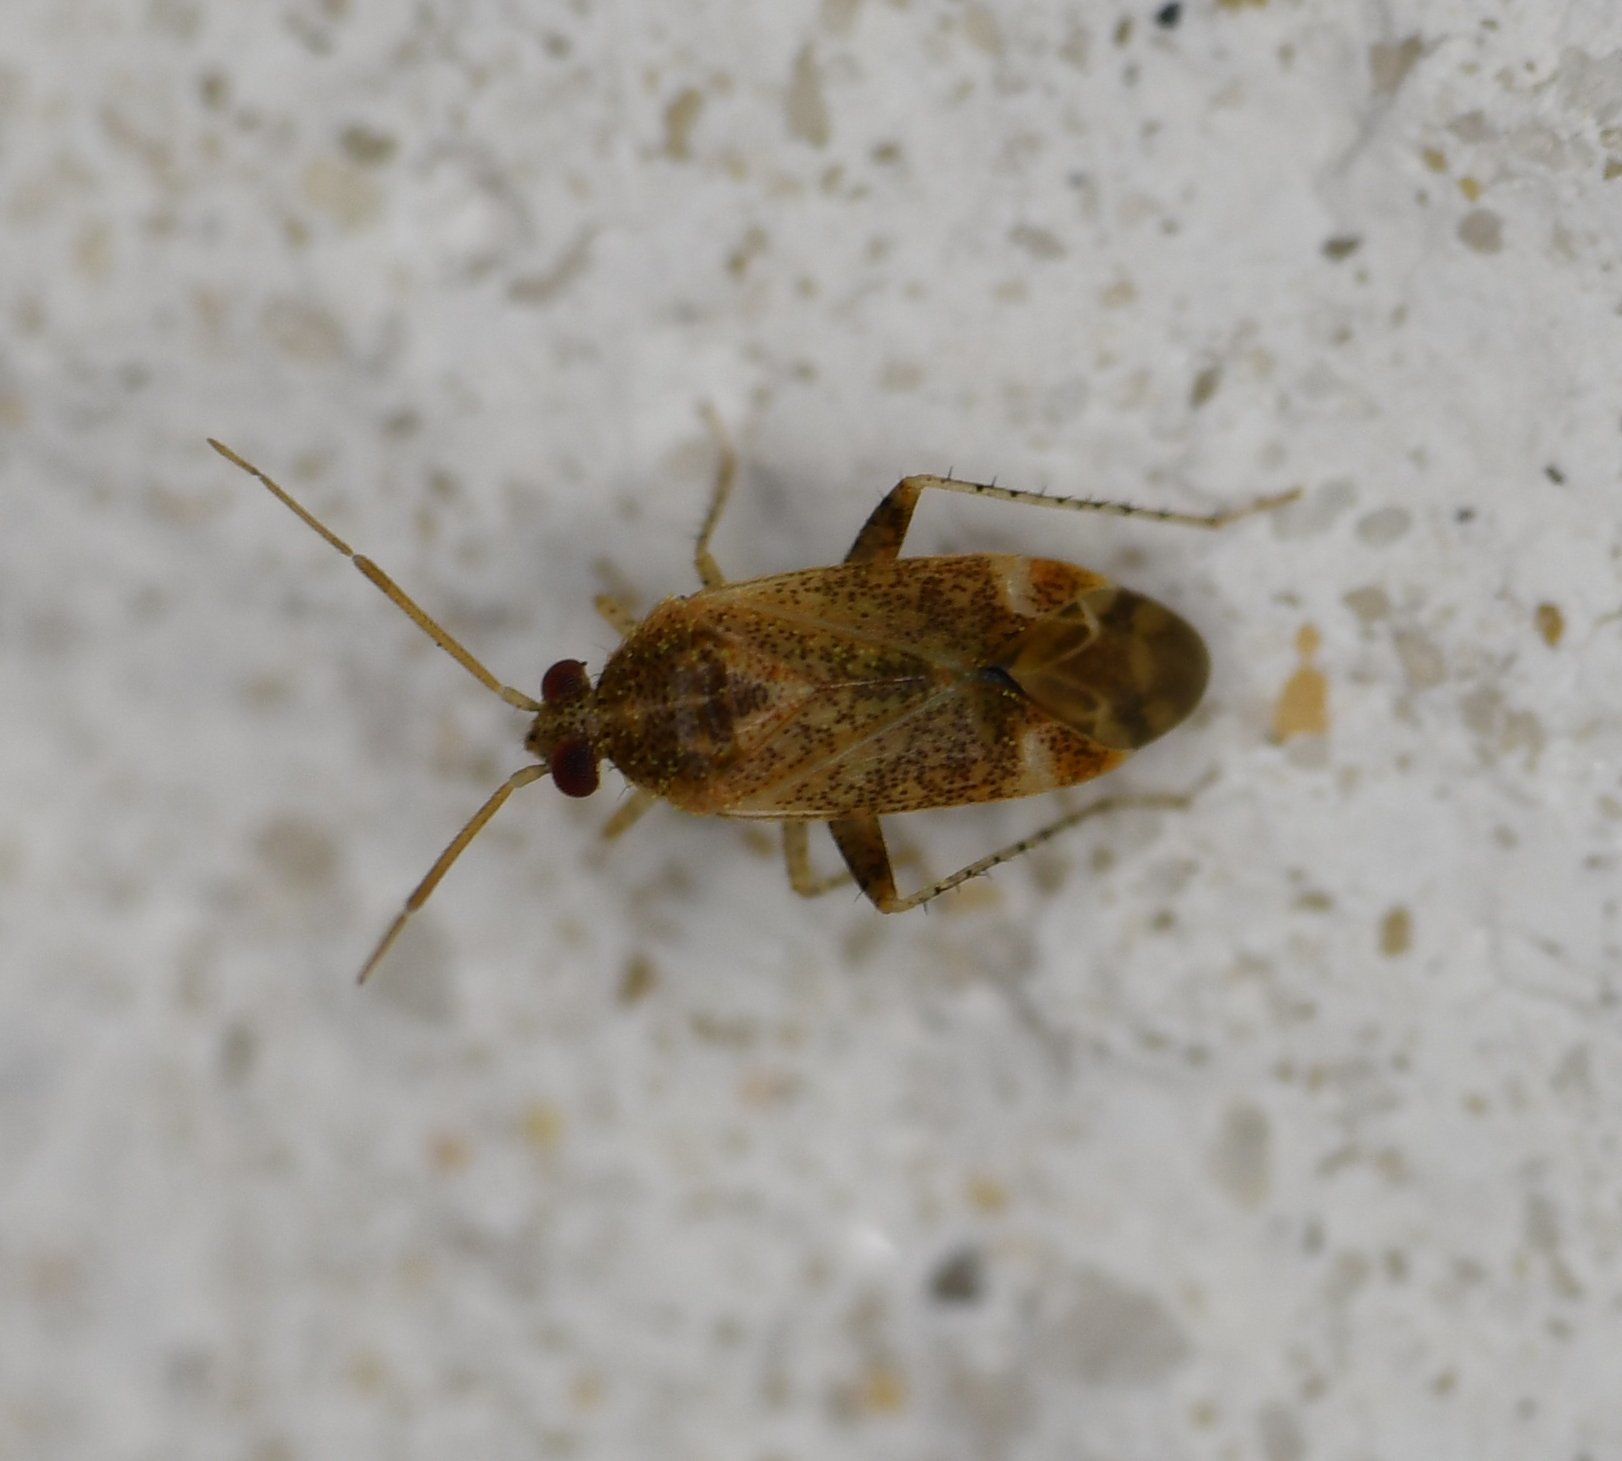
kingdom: Animalia
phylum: Arthropoda
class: Insecta
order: Hemiptera
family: Miridae
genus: Hamatophylus
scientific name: Hamatophylus guttulosus
